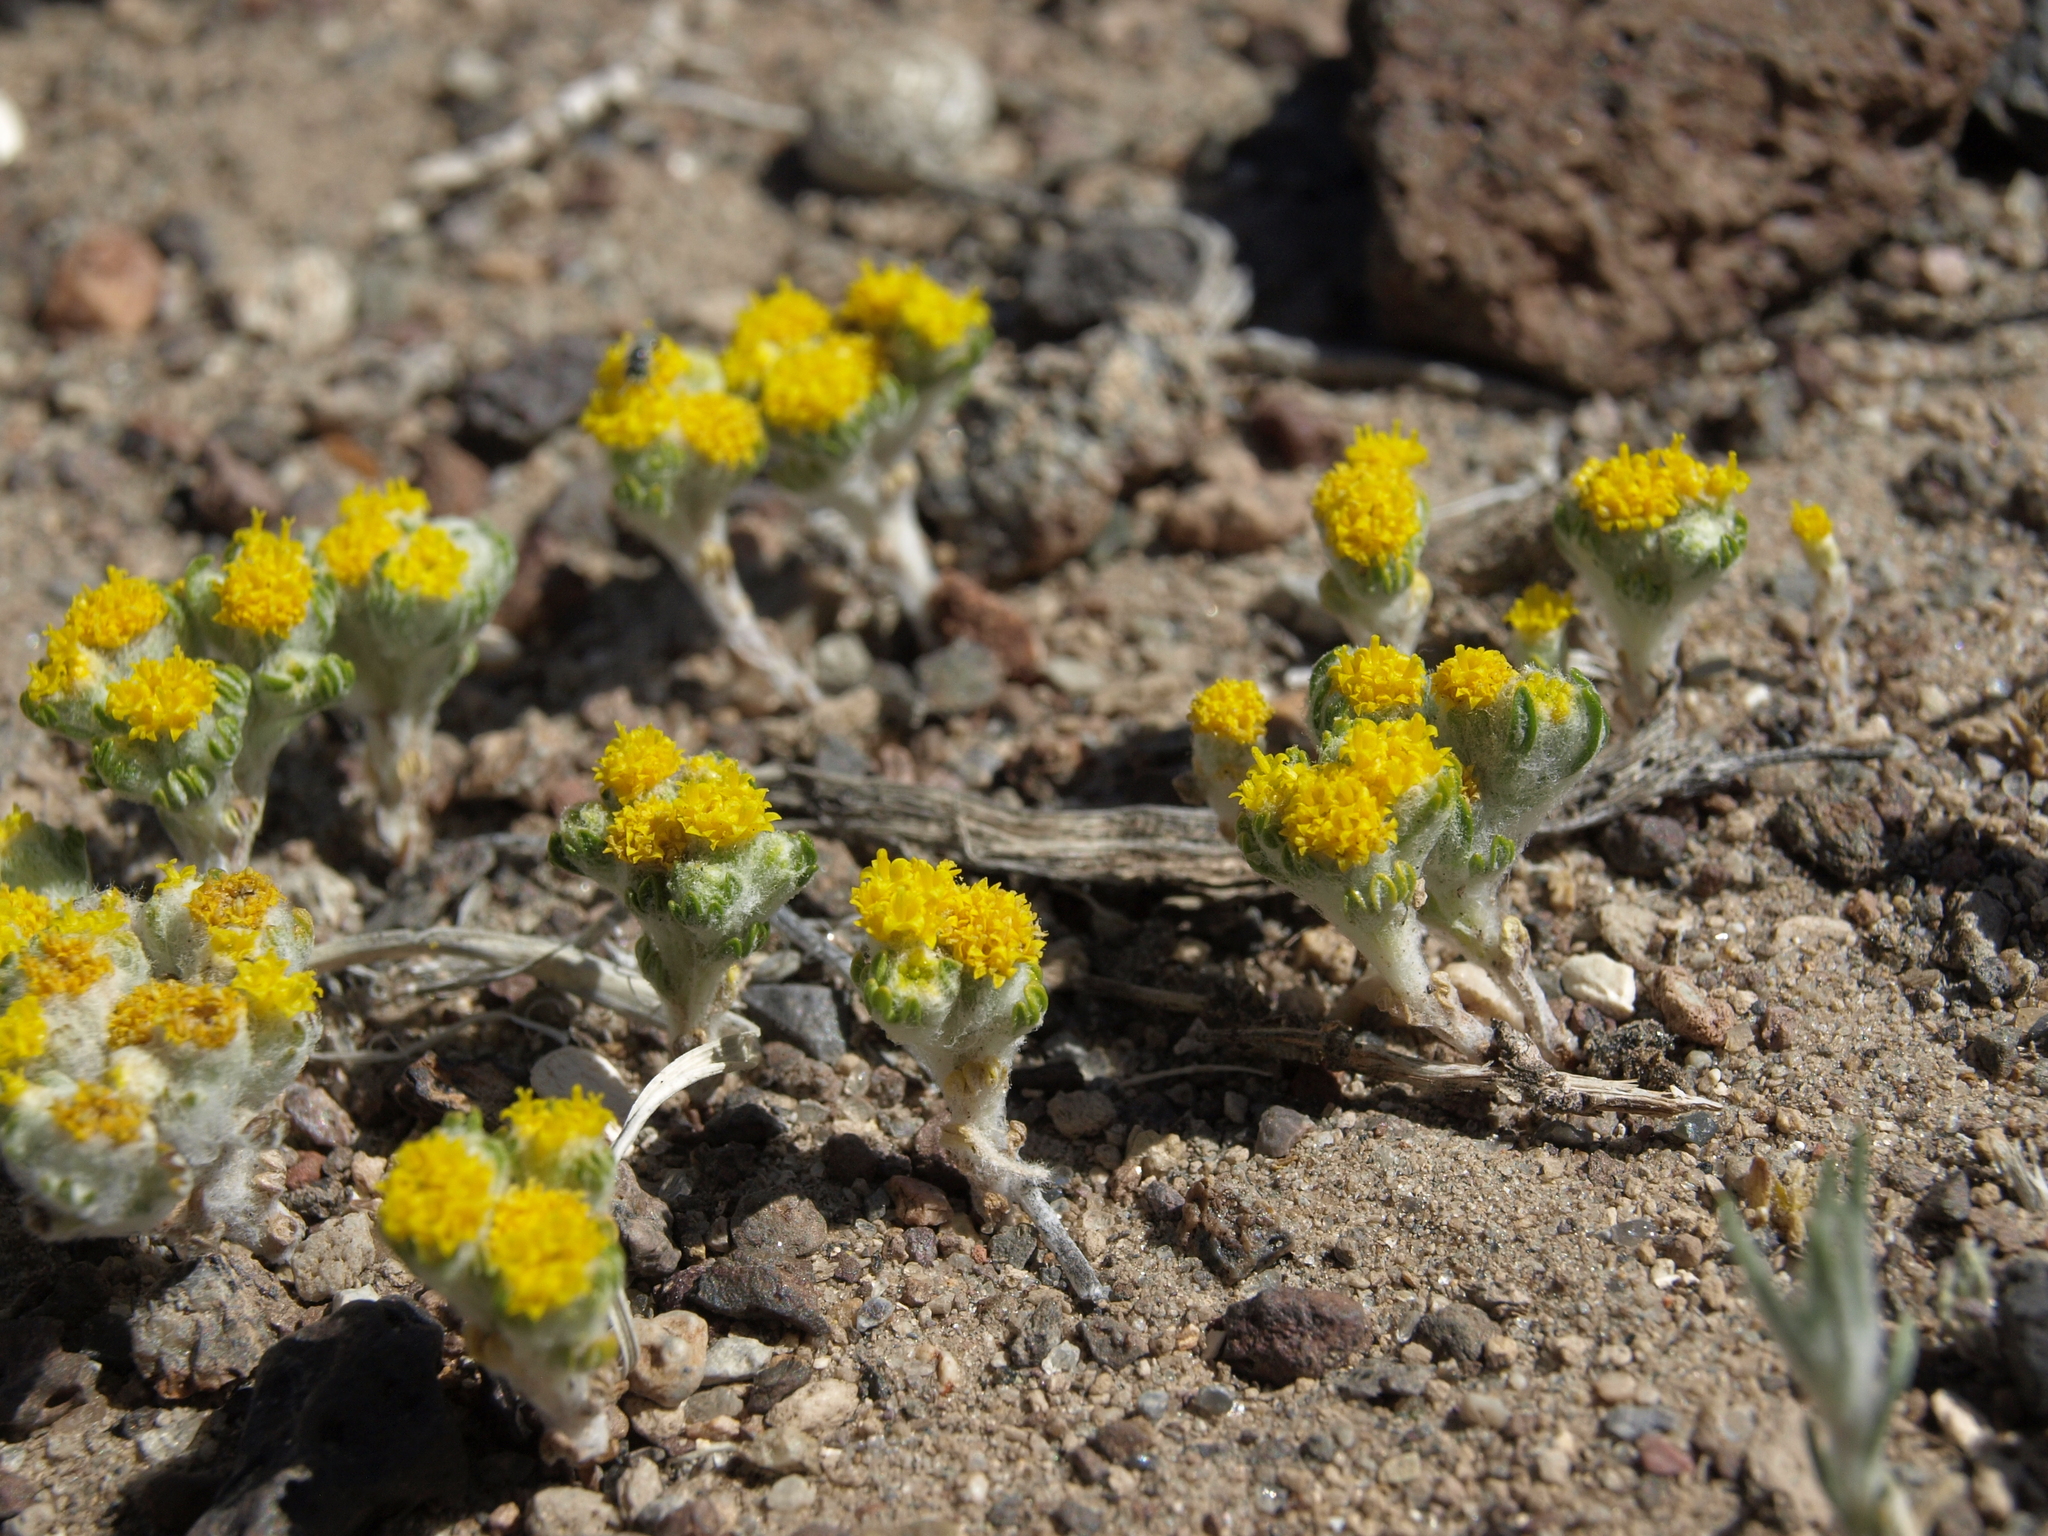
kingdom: Plantae
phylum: Tracheophyta
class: Magnoliopsida
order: Asterales
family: Asteraceae
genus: Eriophyllum
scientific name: Eriophyllum pringlei
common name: Pringle's woolly-sunflower
